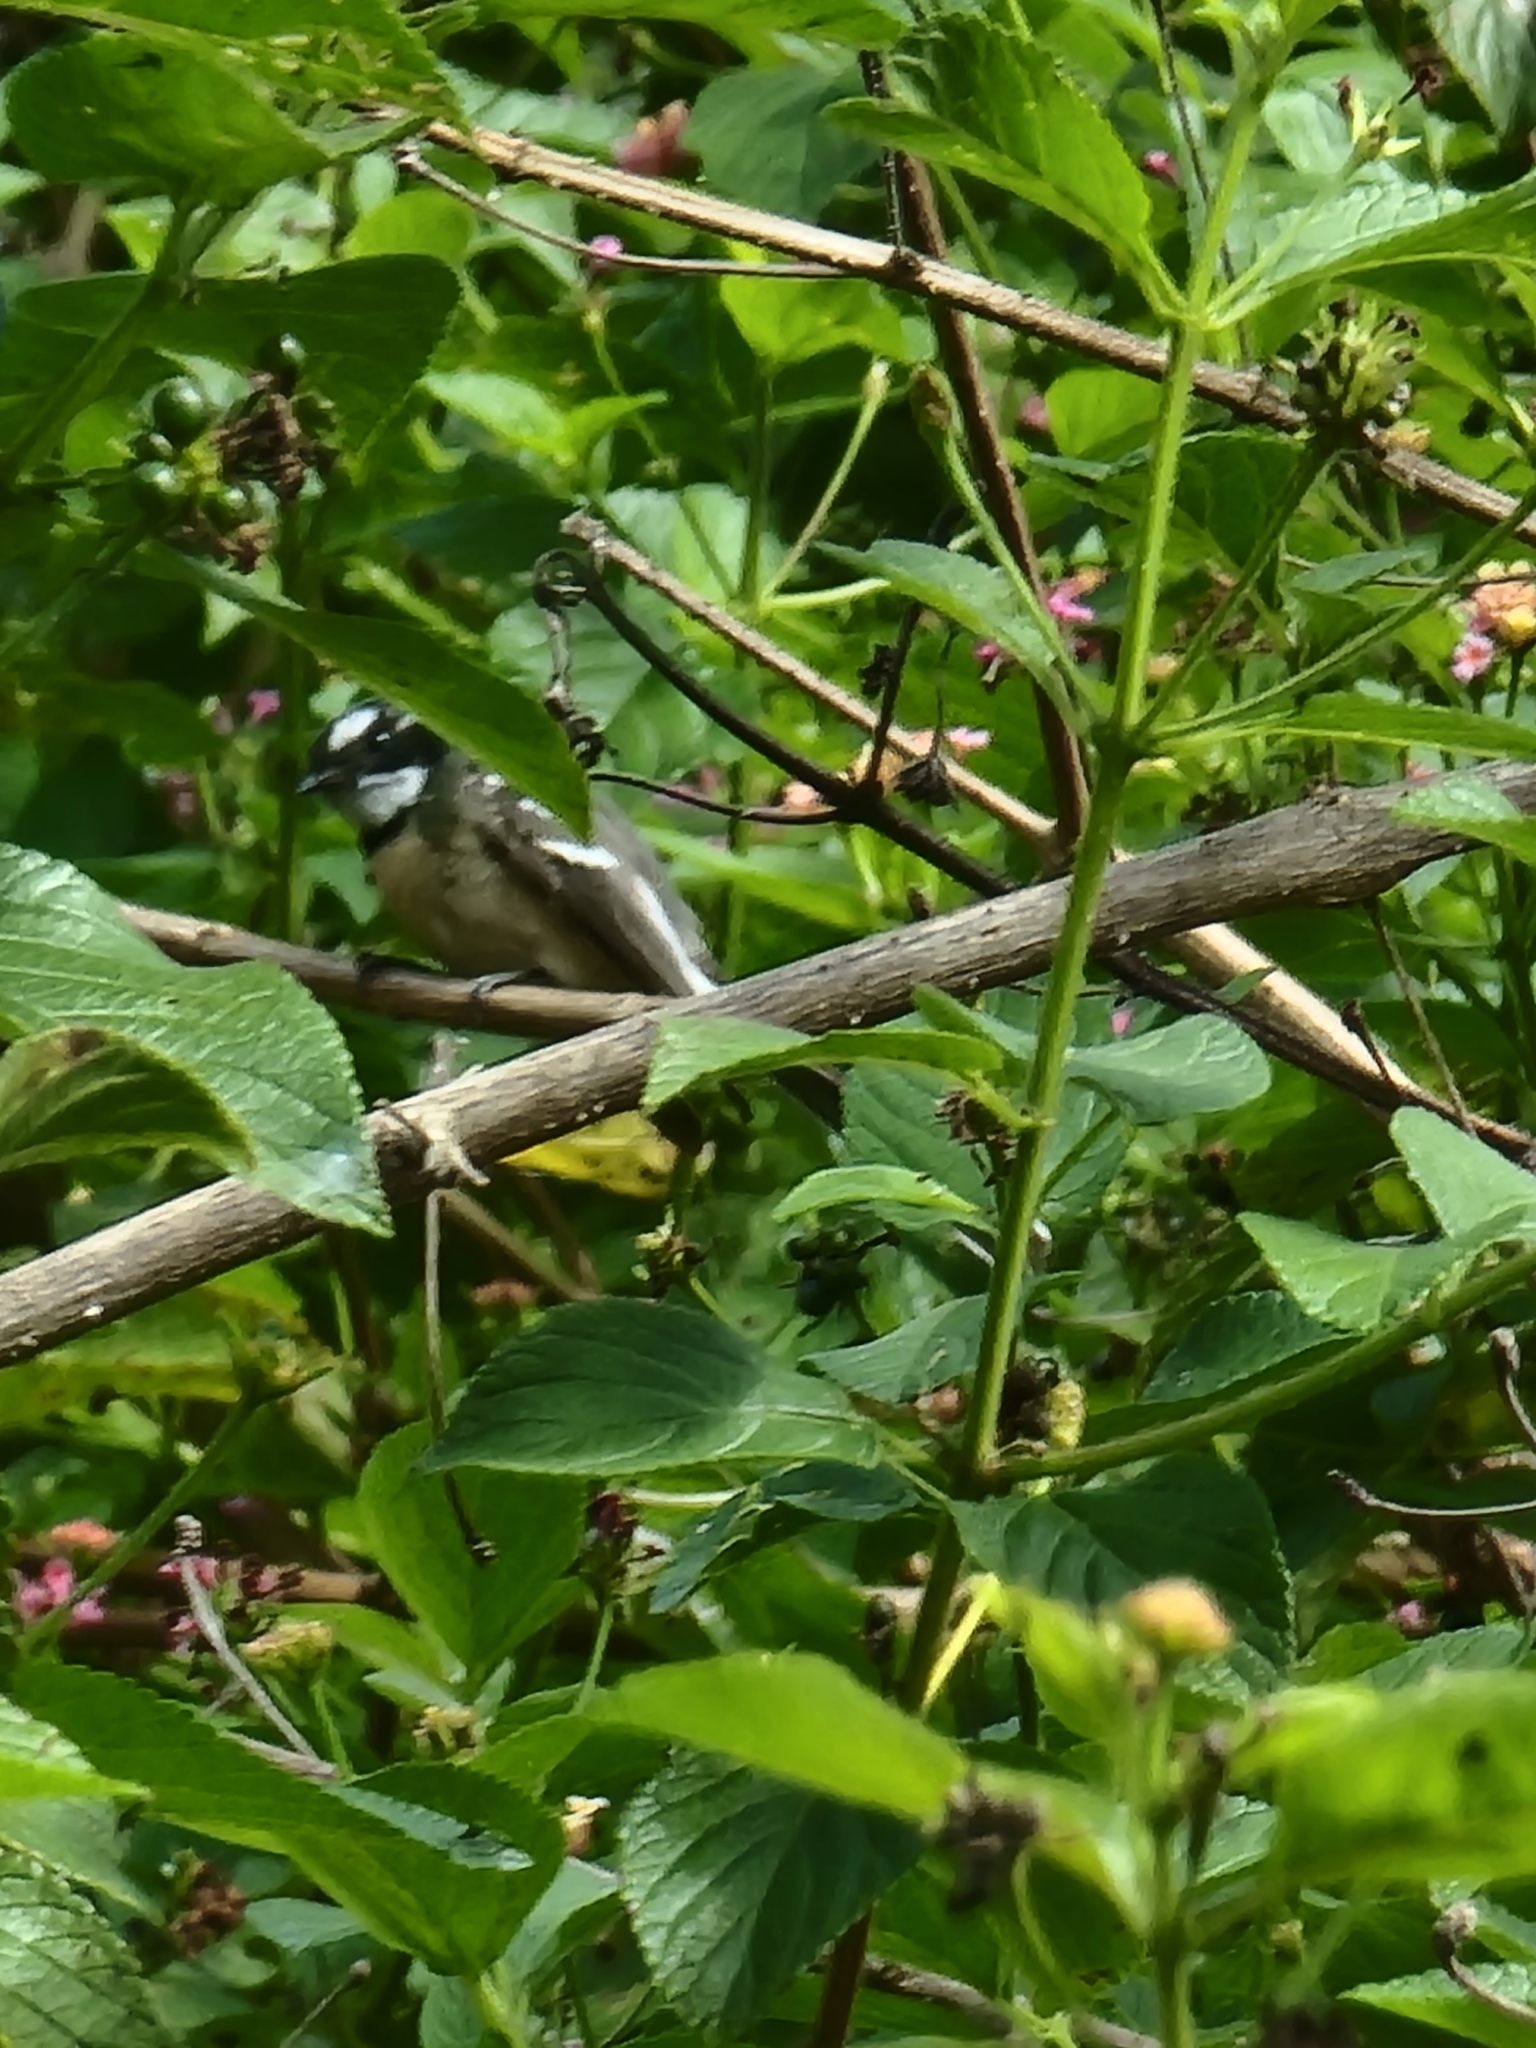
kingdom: Animalia
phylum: Chordata
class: Aves
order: Passeriformes
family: Rhipiduridae
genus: Rhipidura
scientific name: Rhipidura albiscapa
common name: Grey fantail
